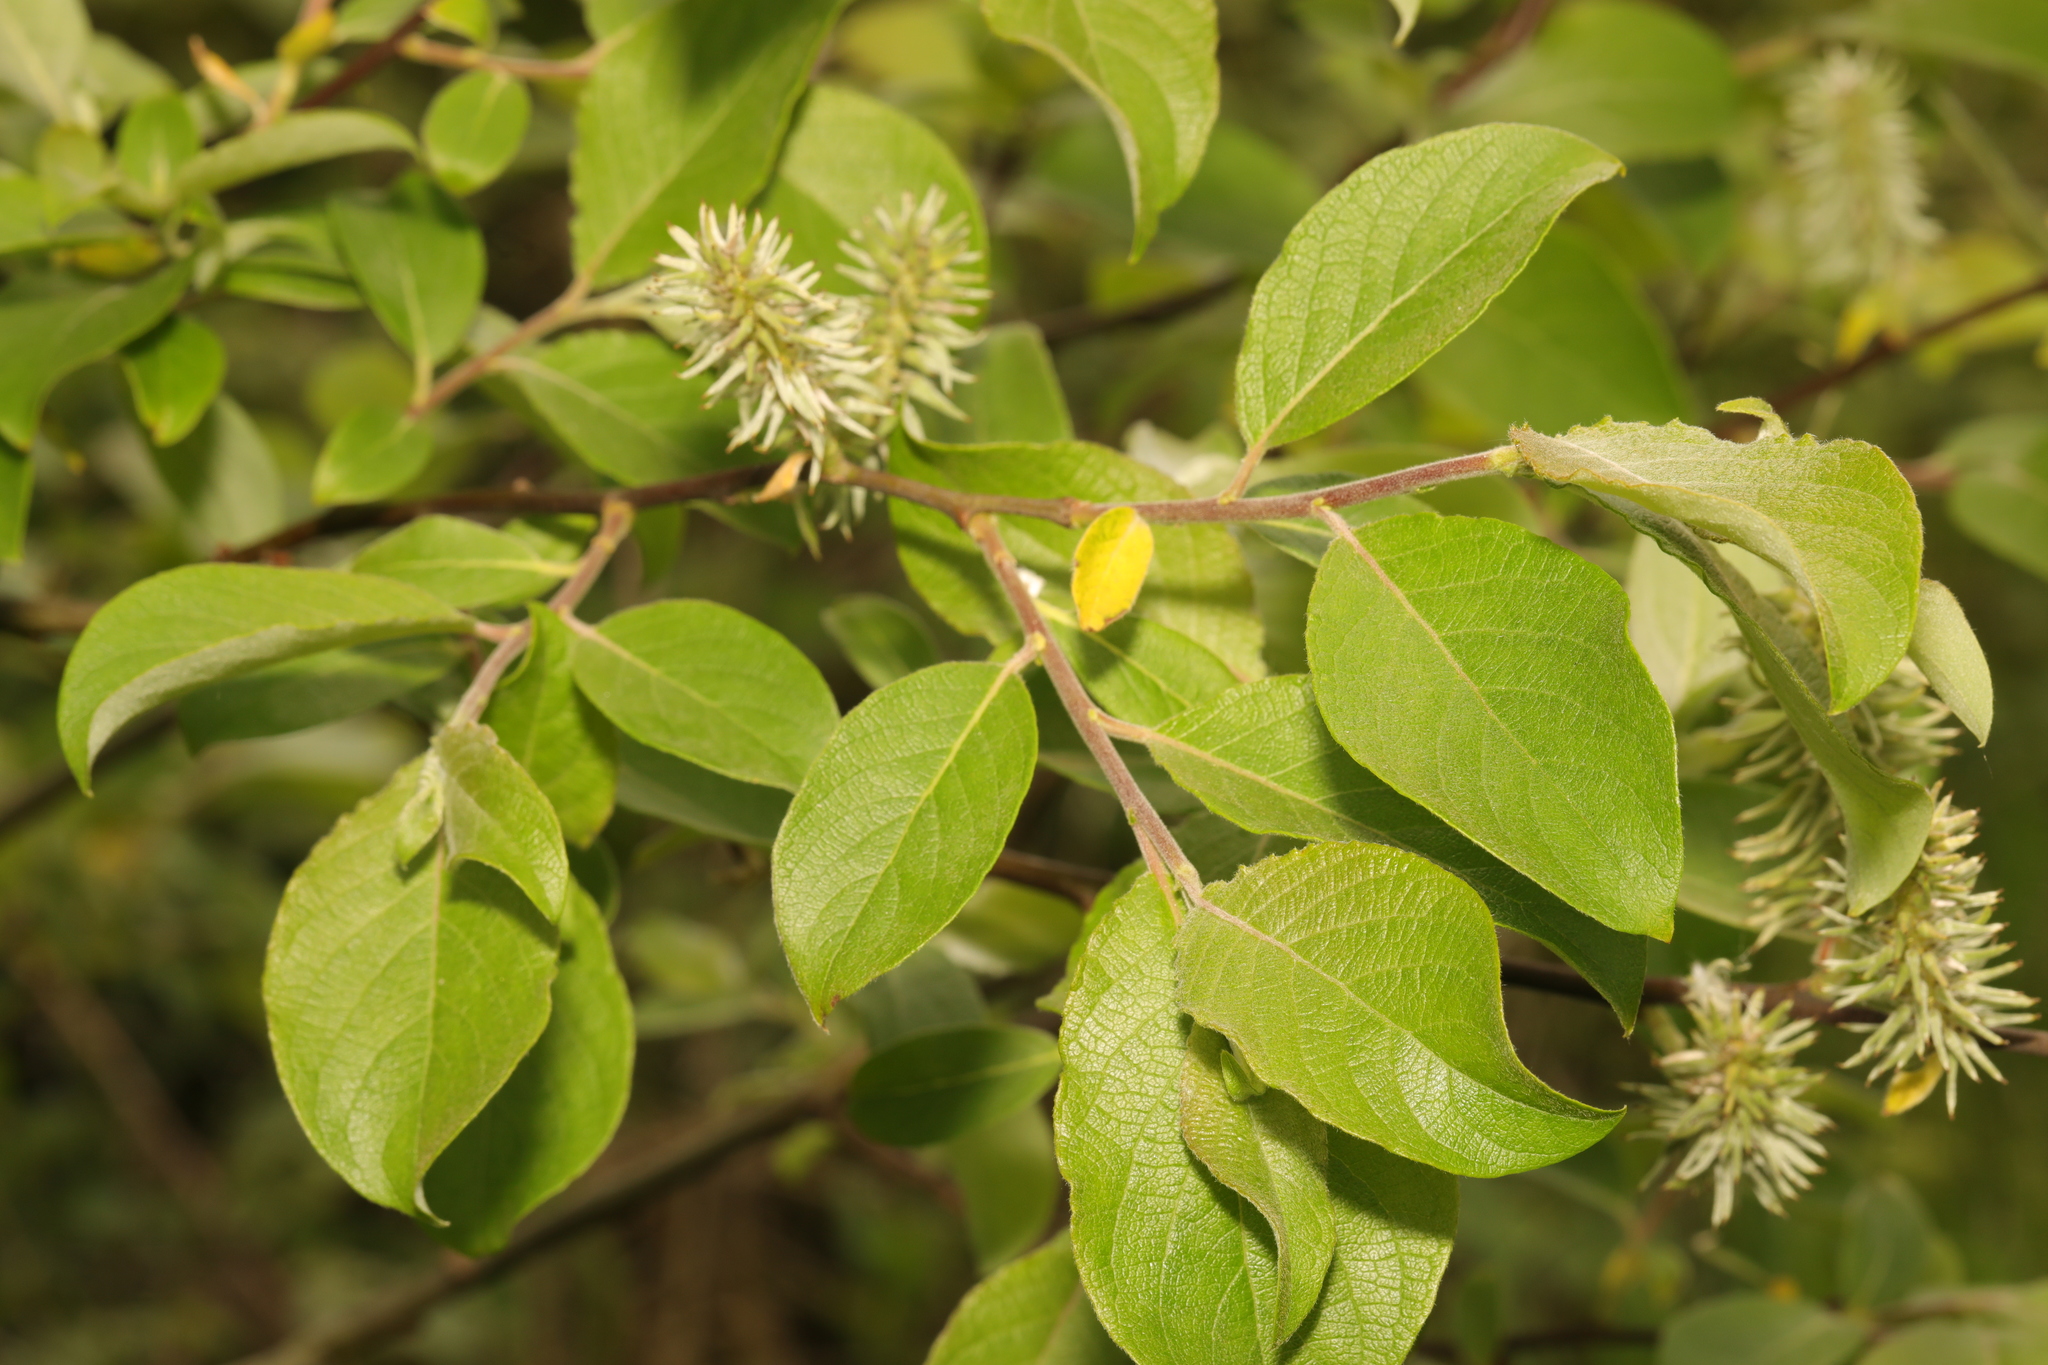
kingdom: Plantae
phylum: Tracheophyta
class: Magnoliopsida
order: Malpighiales
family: Salicaceae
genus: Salix
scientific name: Salix caprea
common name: Goat willow
